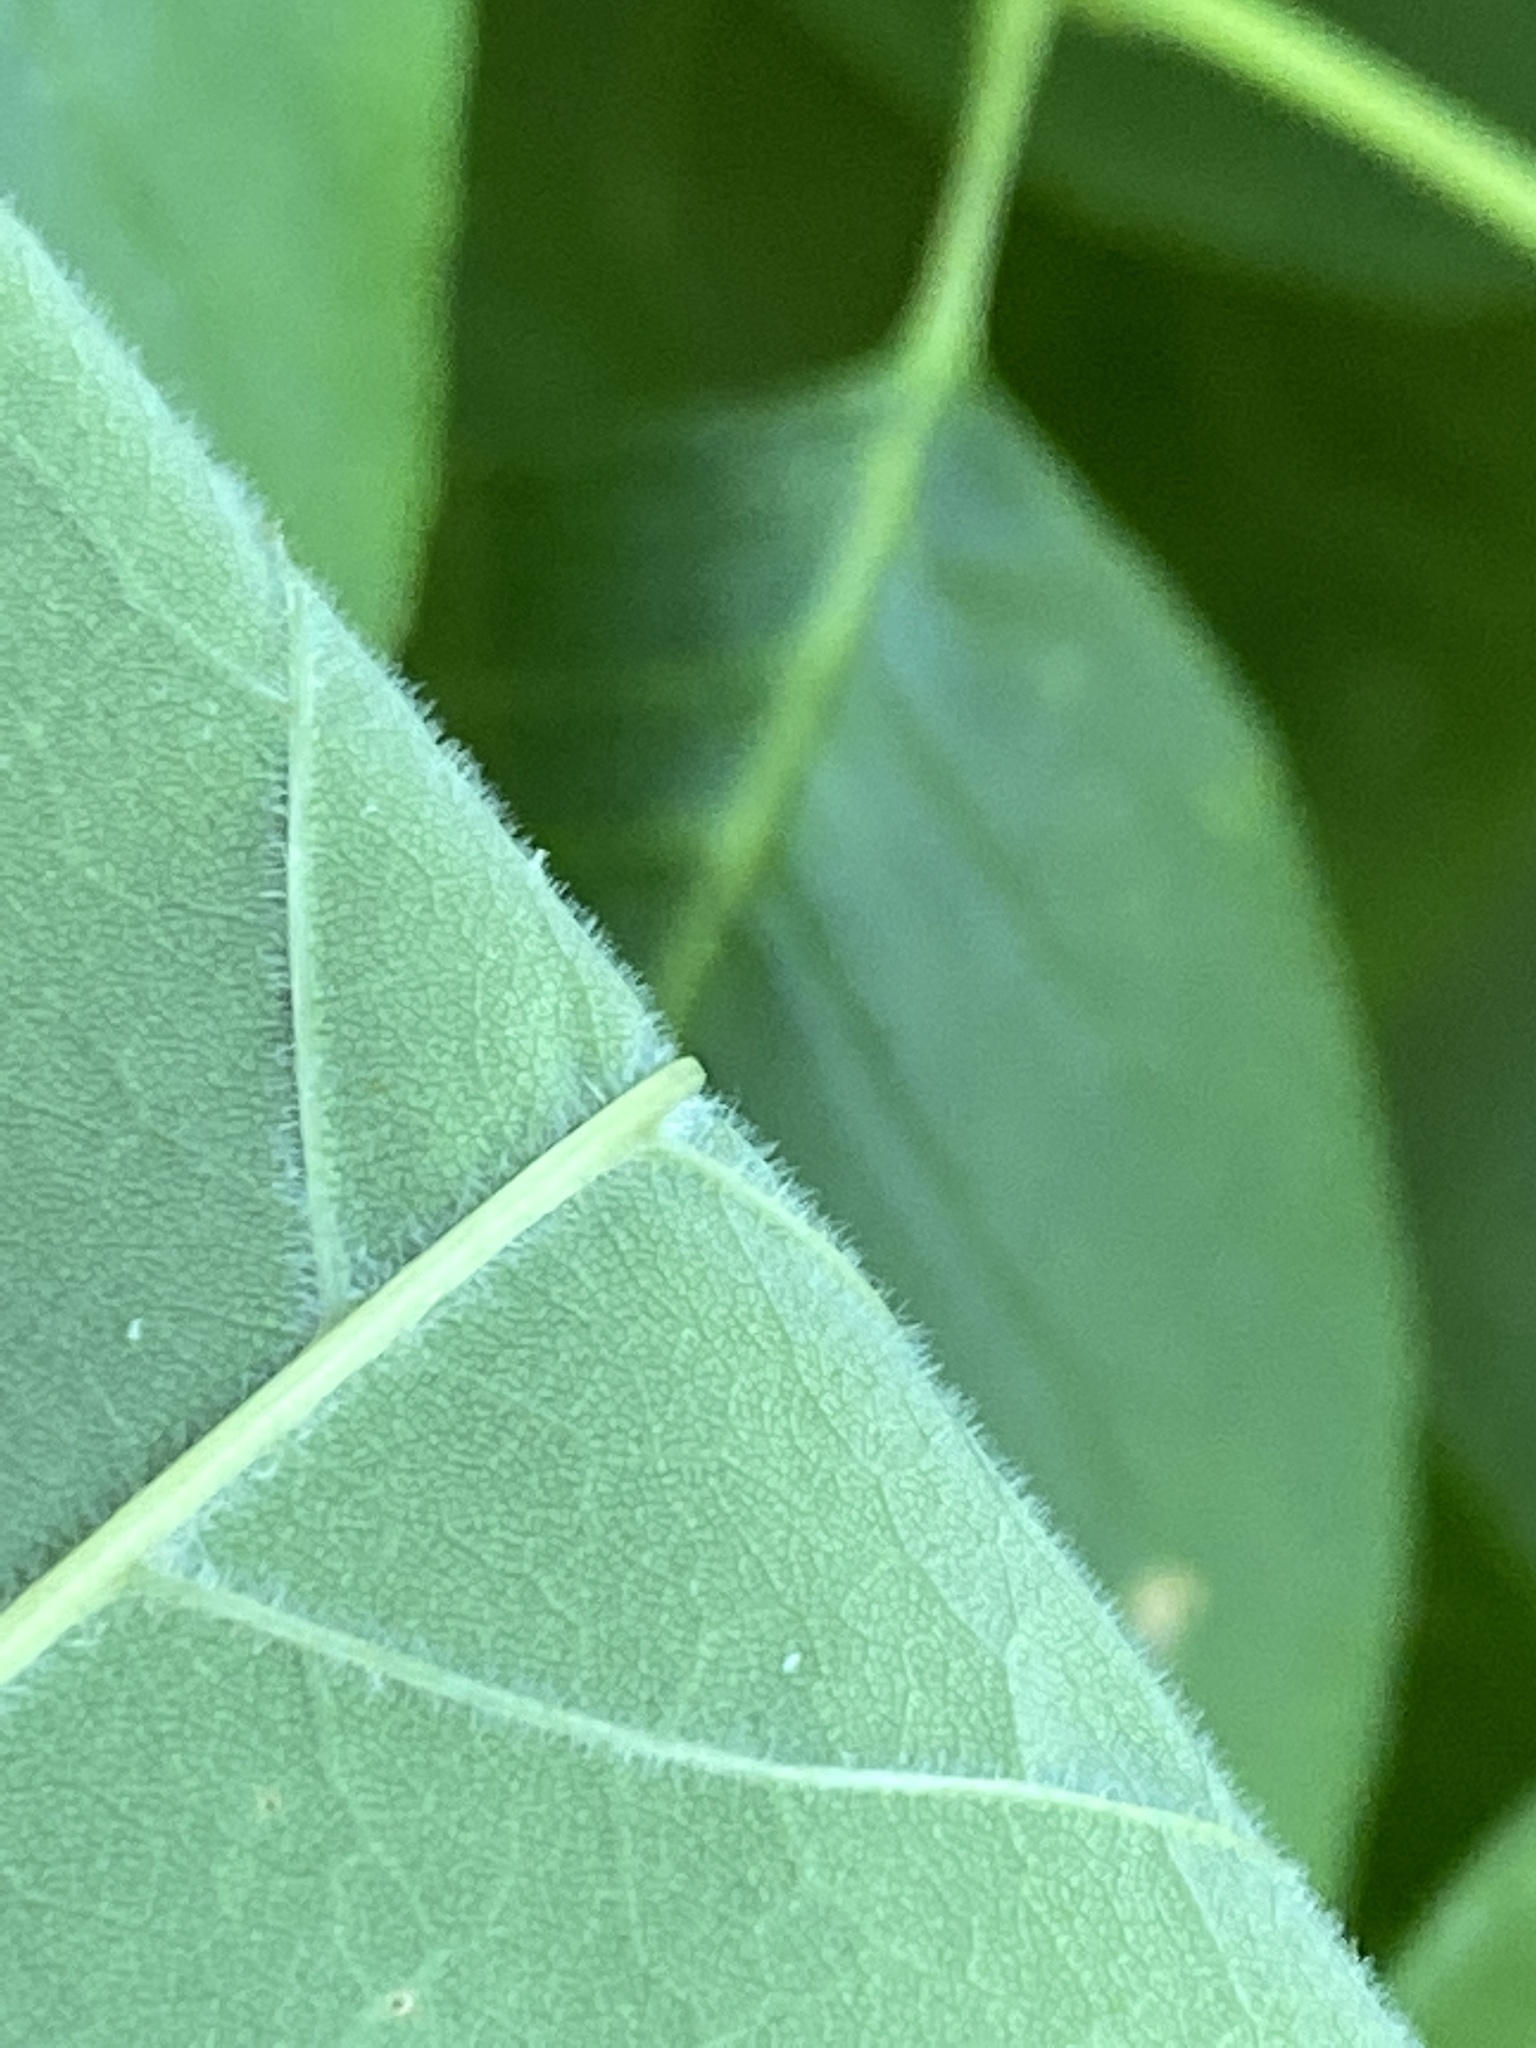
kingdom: Plantae
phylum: Tracheophyta
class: Magnoliopsida
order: Lamiales
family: Oleaceae
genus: Fraxinus
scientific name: Fraxinus americana
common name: White ash
